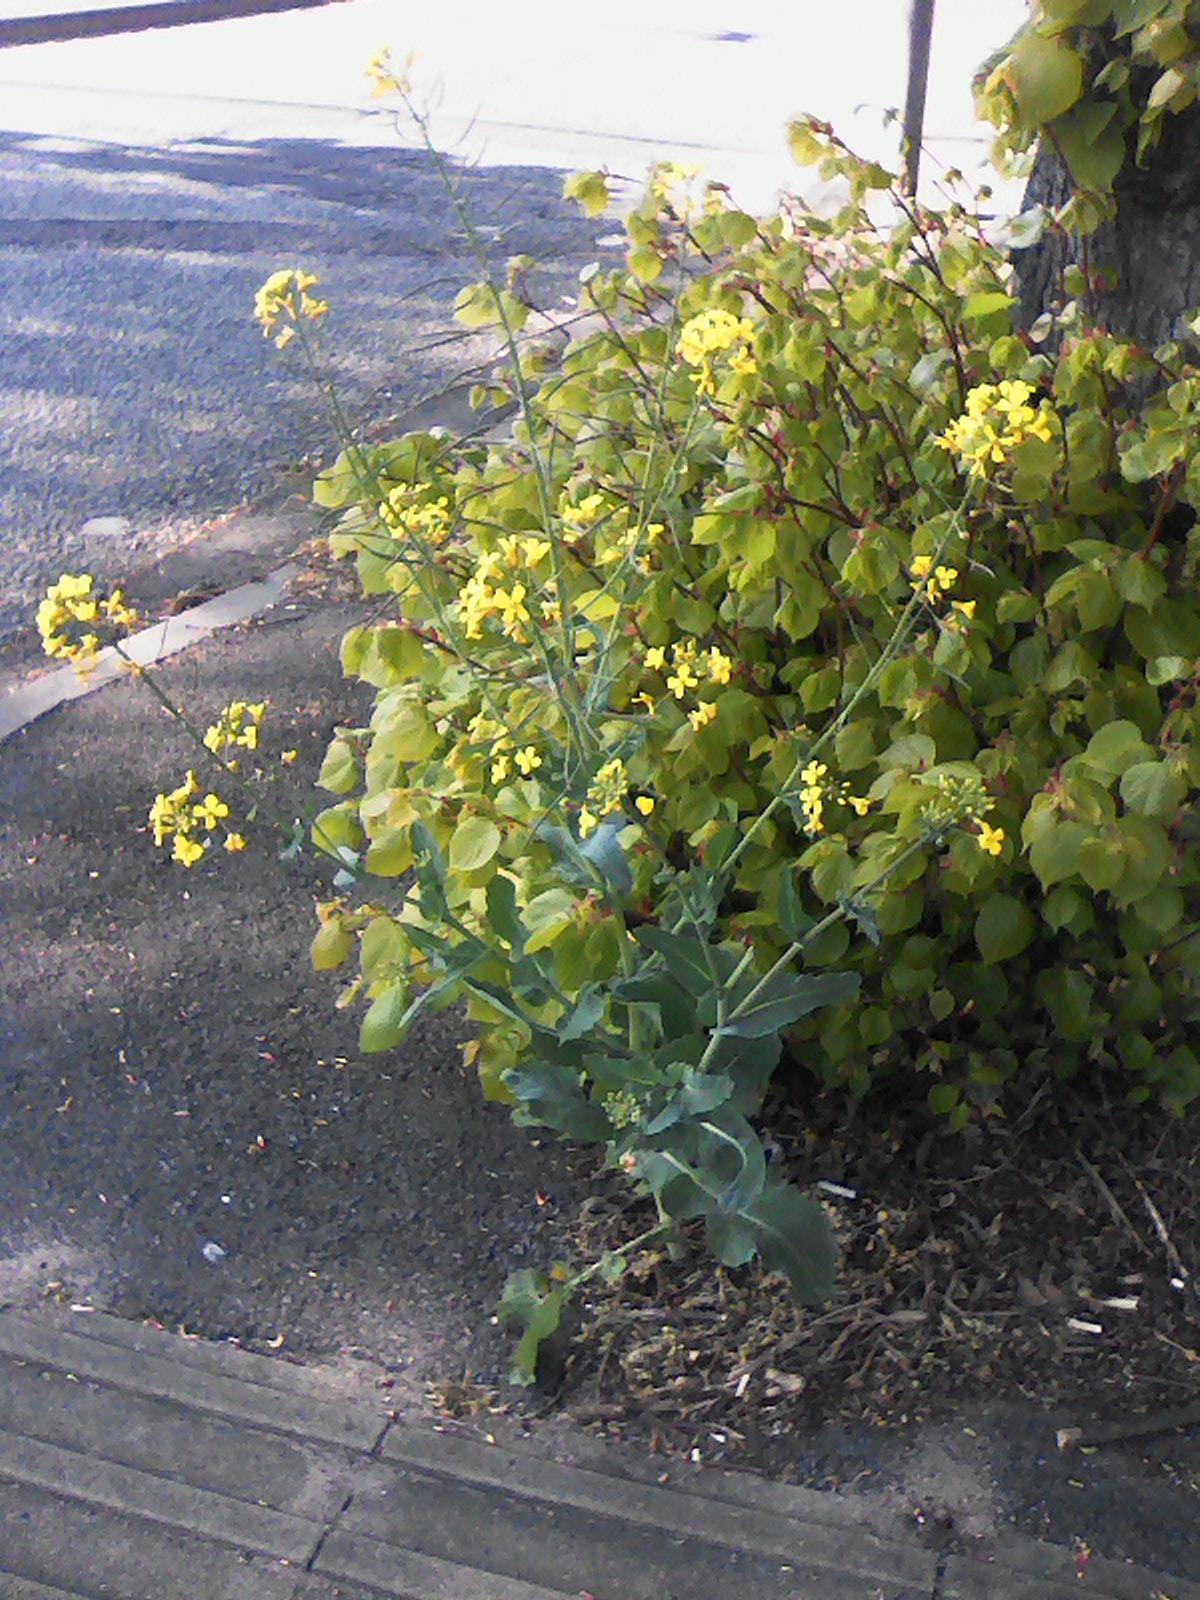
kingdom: Plantae
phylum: Tracheophyta
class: Magnoliopsida
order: Brassicales
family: Brassicaceae
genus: Brassica
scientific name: Brassica napus
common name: Rape
